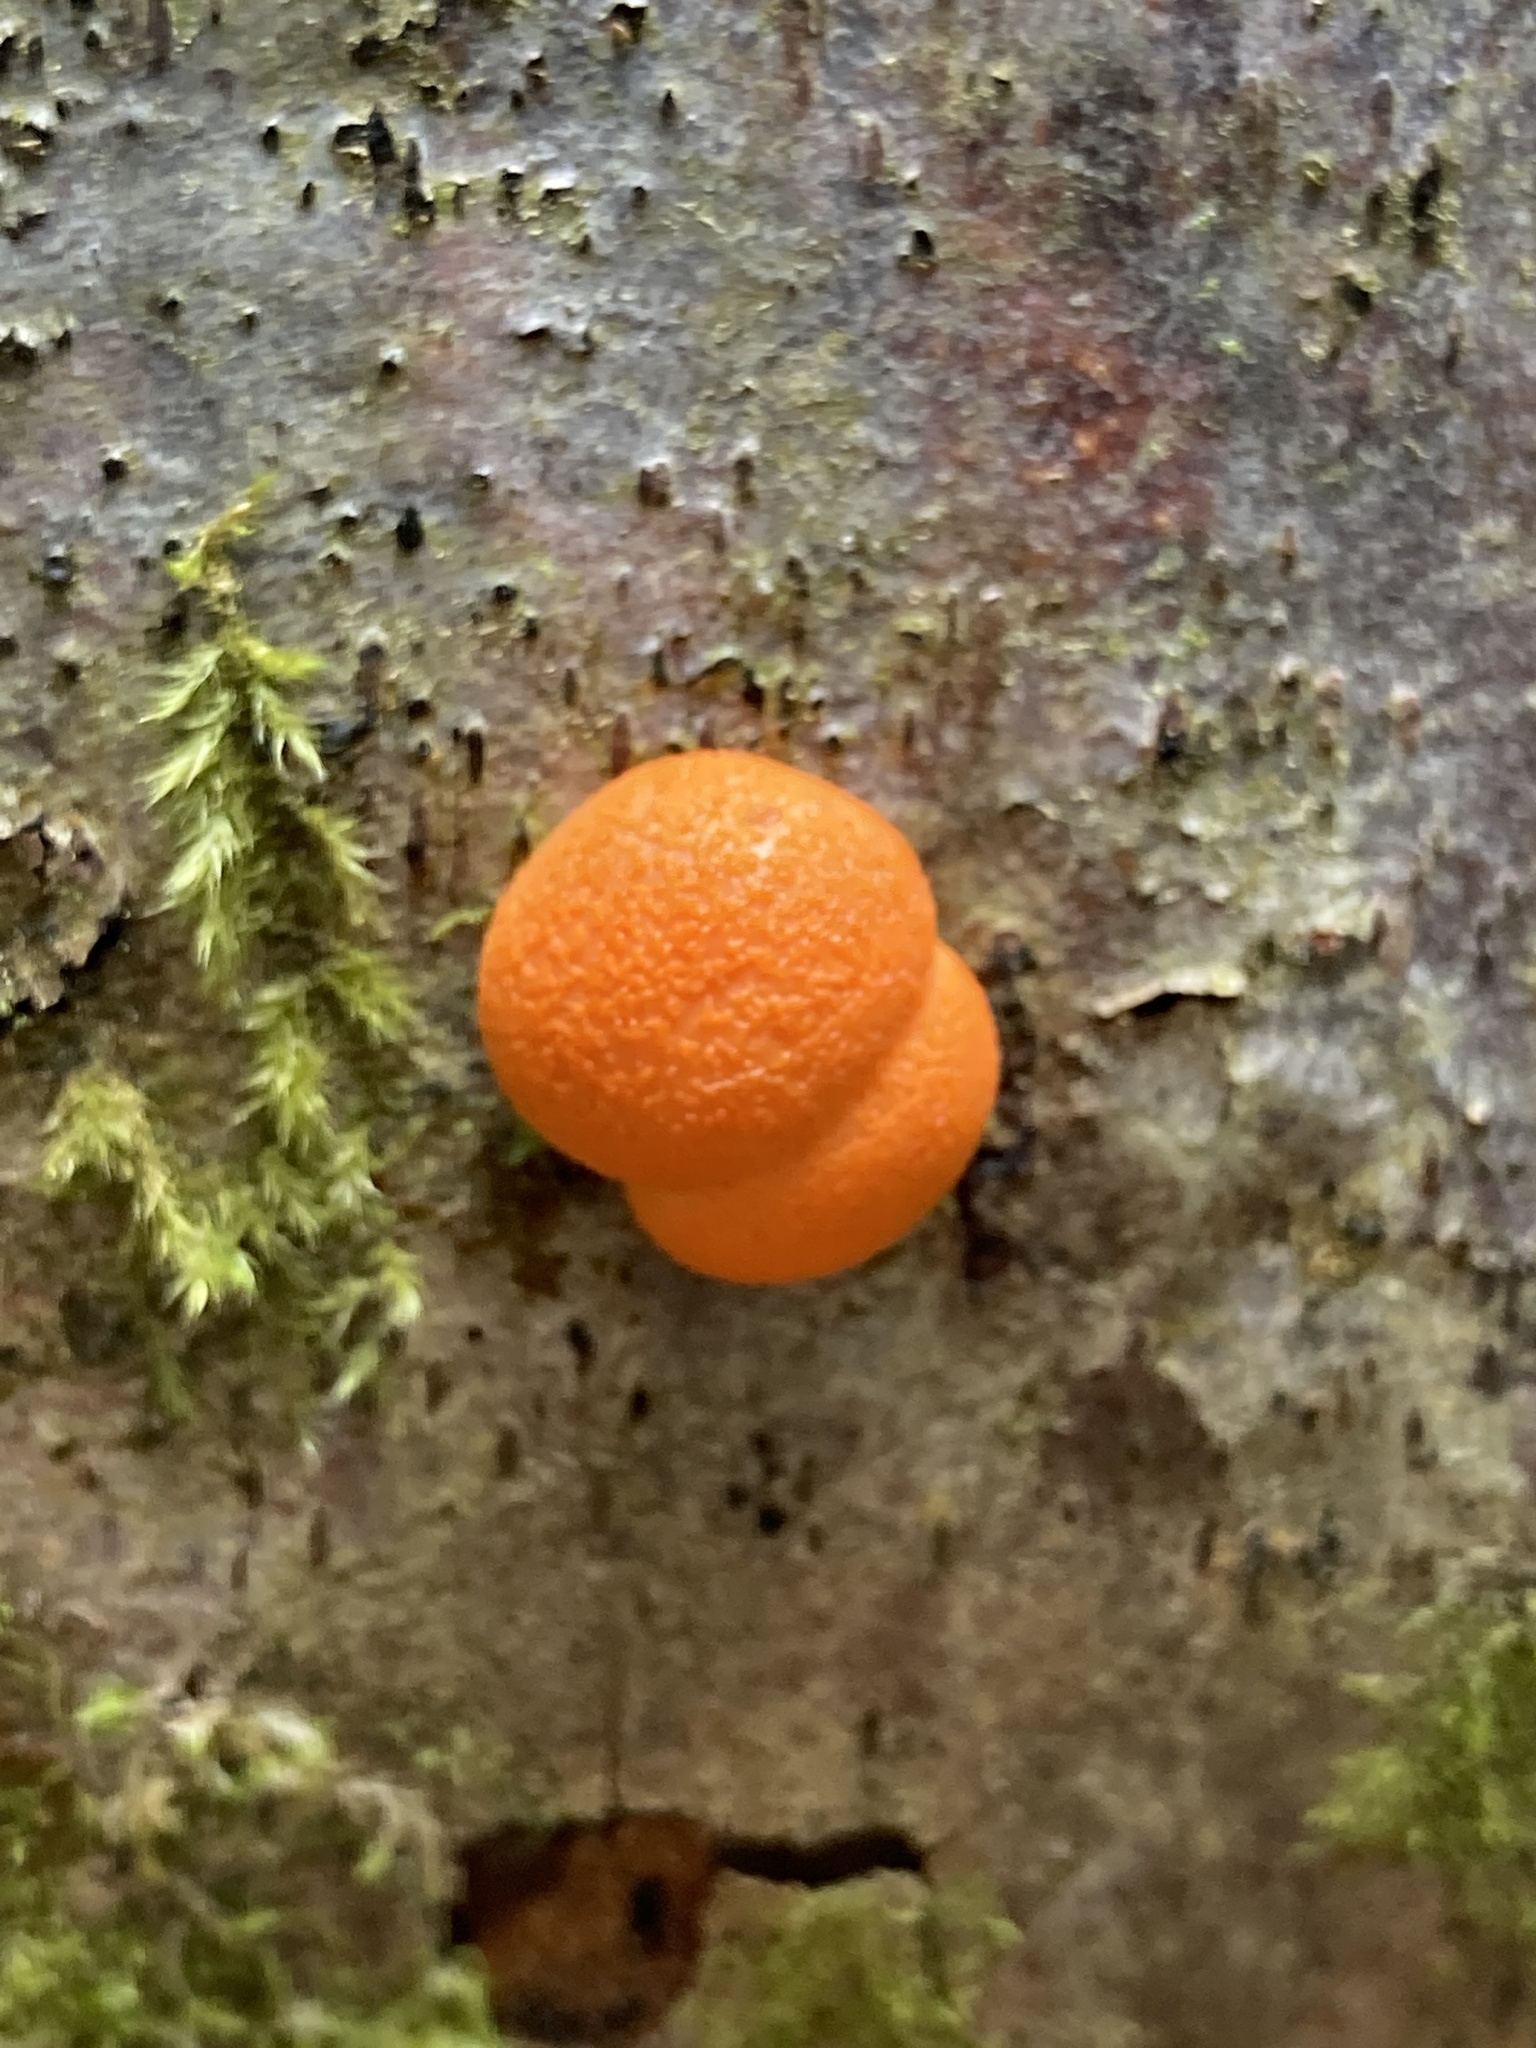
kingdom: Protozoa
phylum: Mycetozoa
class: Myxomycetes
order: Cribrariales
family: Tubiferaceae
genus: Lycogala
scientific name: Lycogala epidendrum
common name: Wolf's milk
